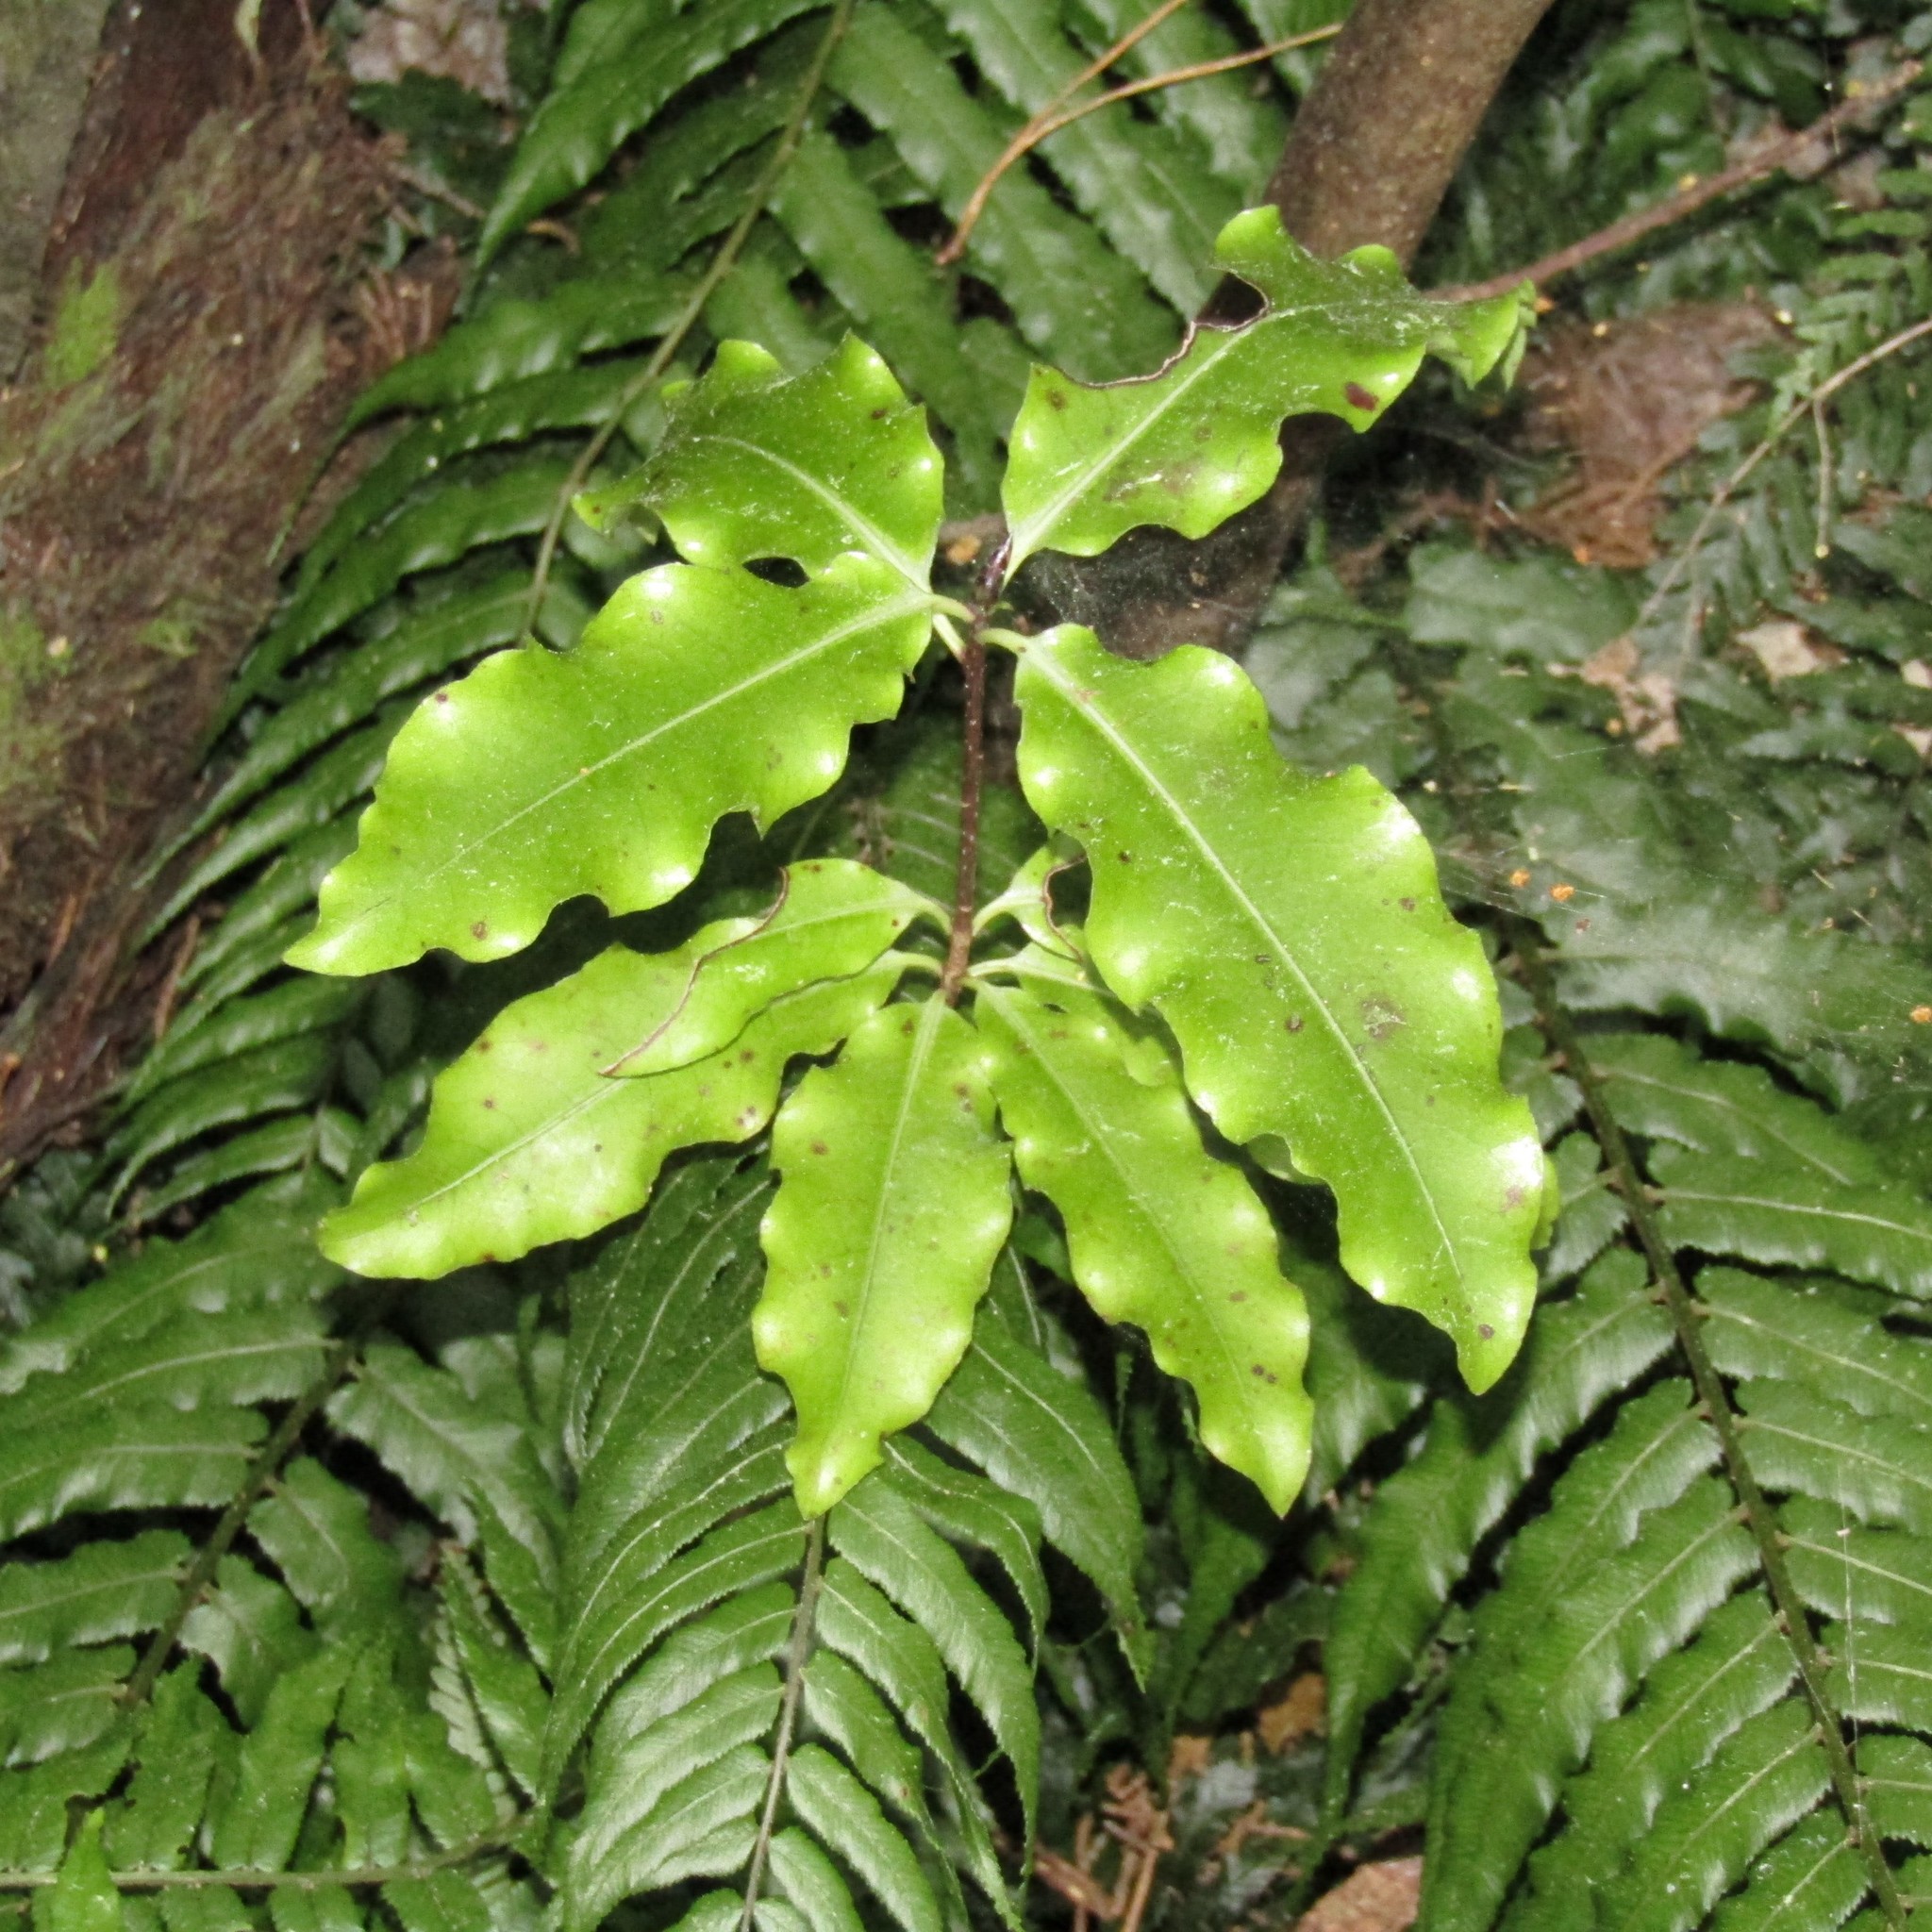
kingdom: Plantae
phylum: Tracheophyta
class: Magnoliopsida
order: Apiales
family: Pittosporaceae
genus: Pittosporum
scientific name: Pittosporum eugenioides
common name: Lemonwood
